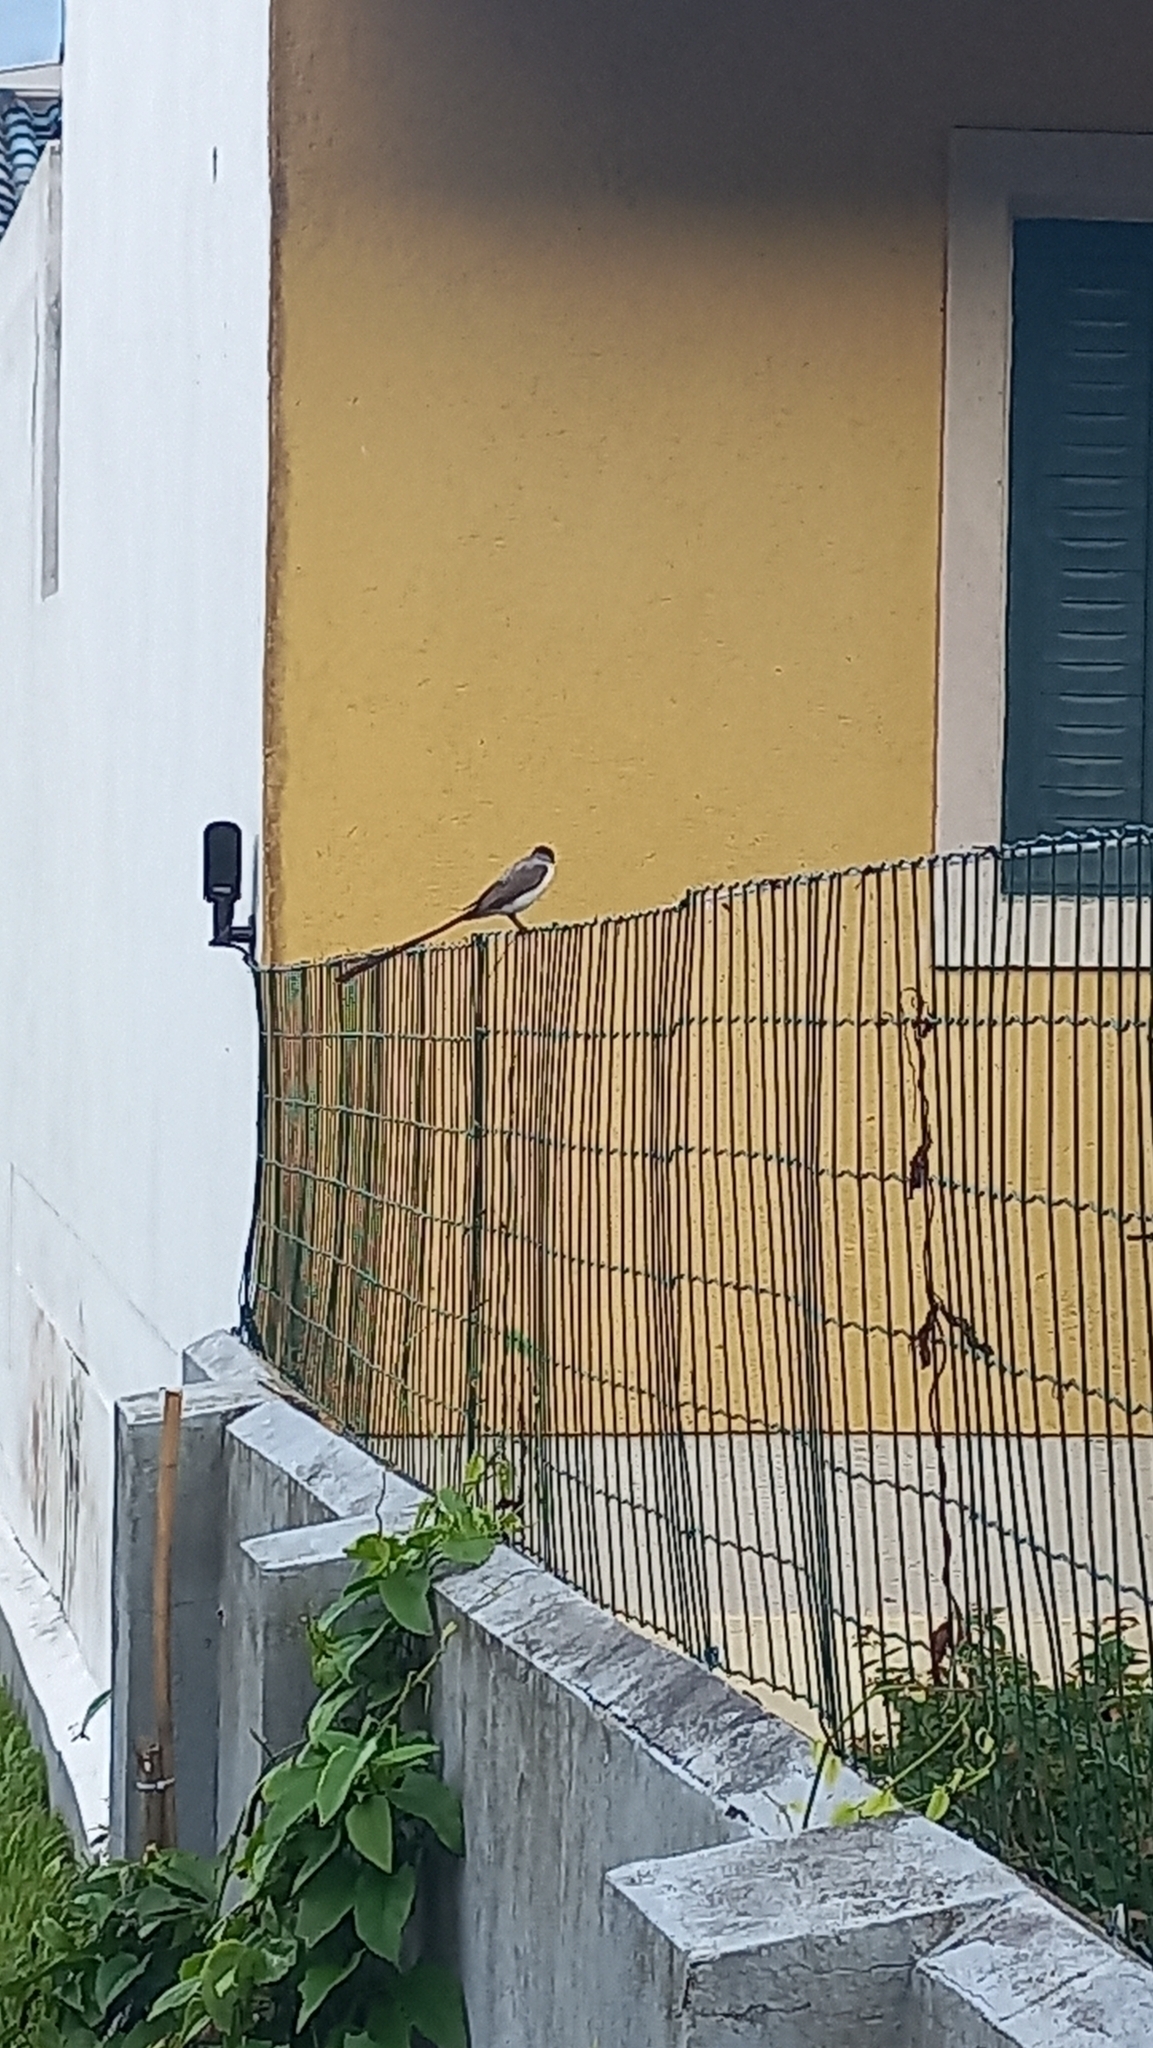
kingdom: Animalia
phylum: Chordata
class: Aves
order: Passeriformes
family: Tyrannidae
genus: Tyrannus
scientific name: Tyrannus savana
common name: Fork-tailed flycatcher
